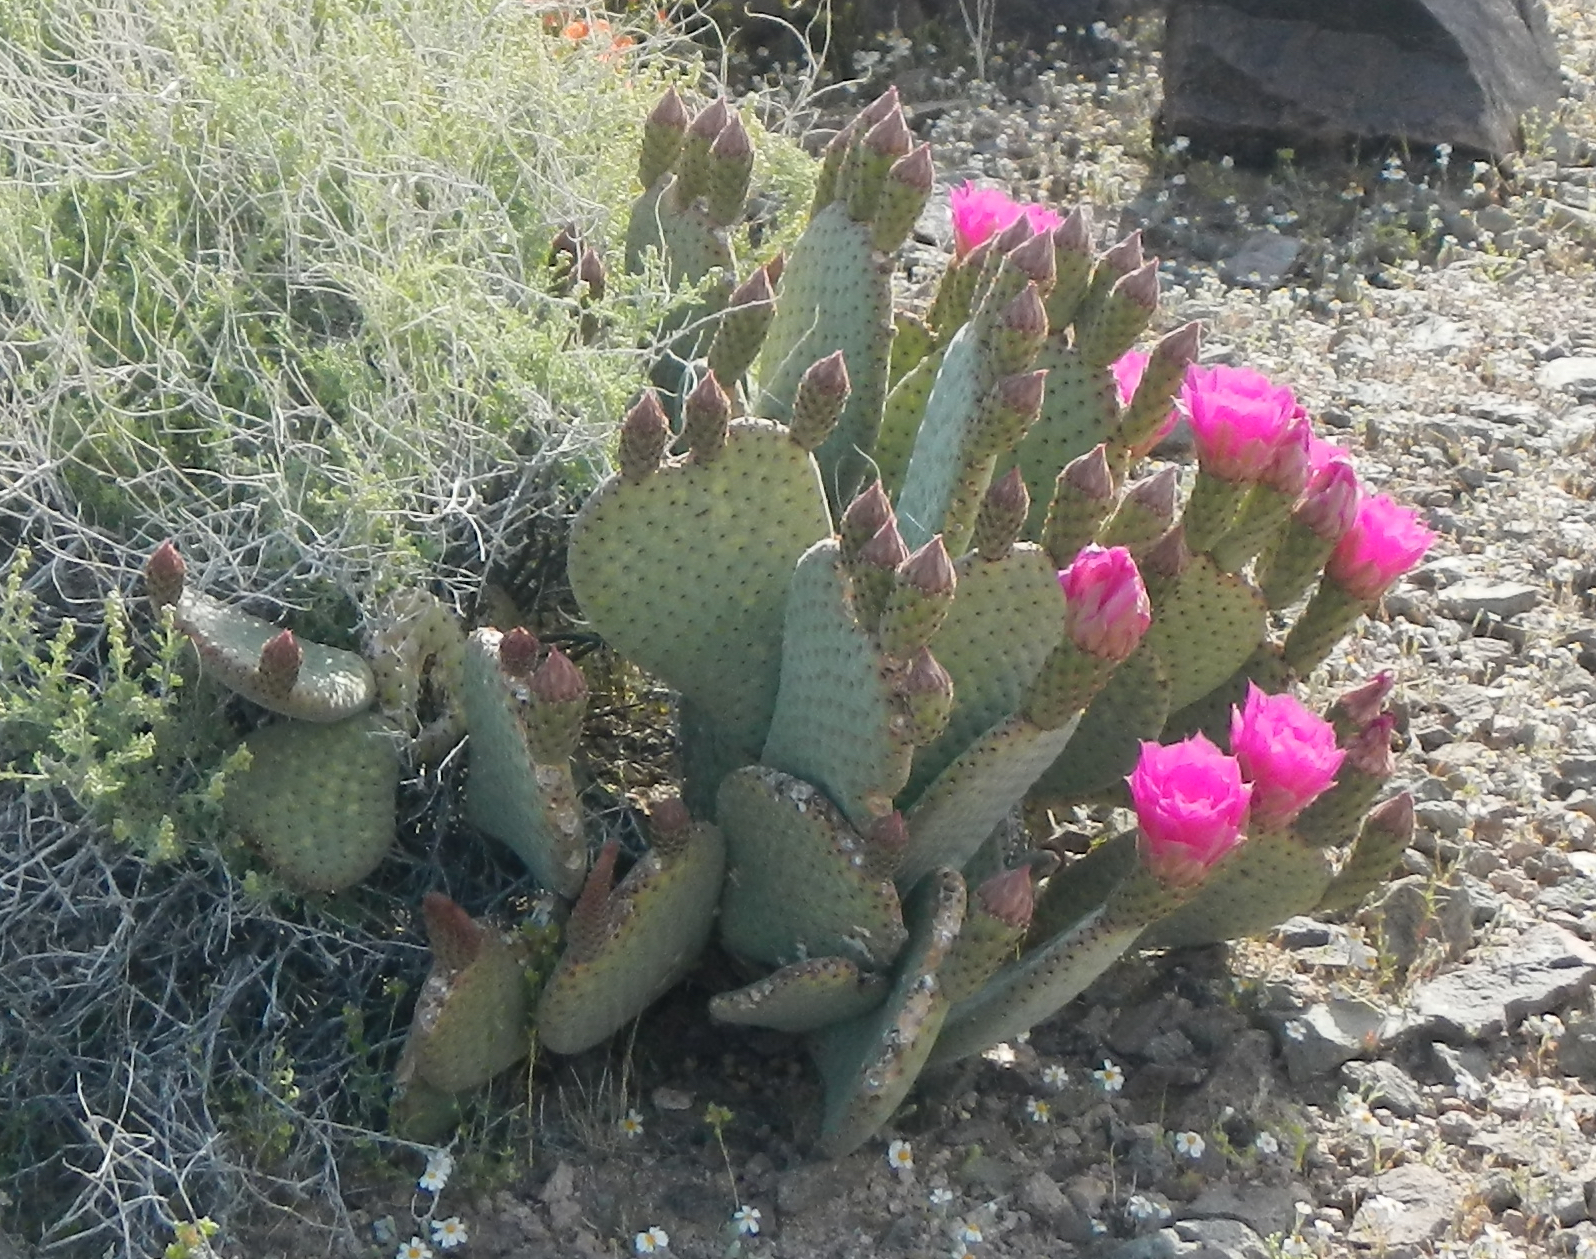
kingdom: Plantae
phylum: Tracheophyta
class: Magnoliopsida
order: Caryophyllales
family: Cactaceae
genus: Opuntia
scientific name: Opuntia basilaris
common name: Beavertail prickly-pear
